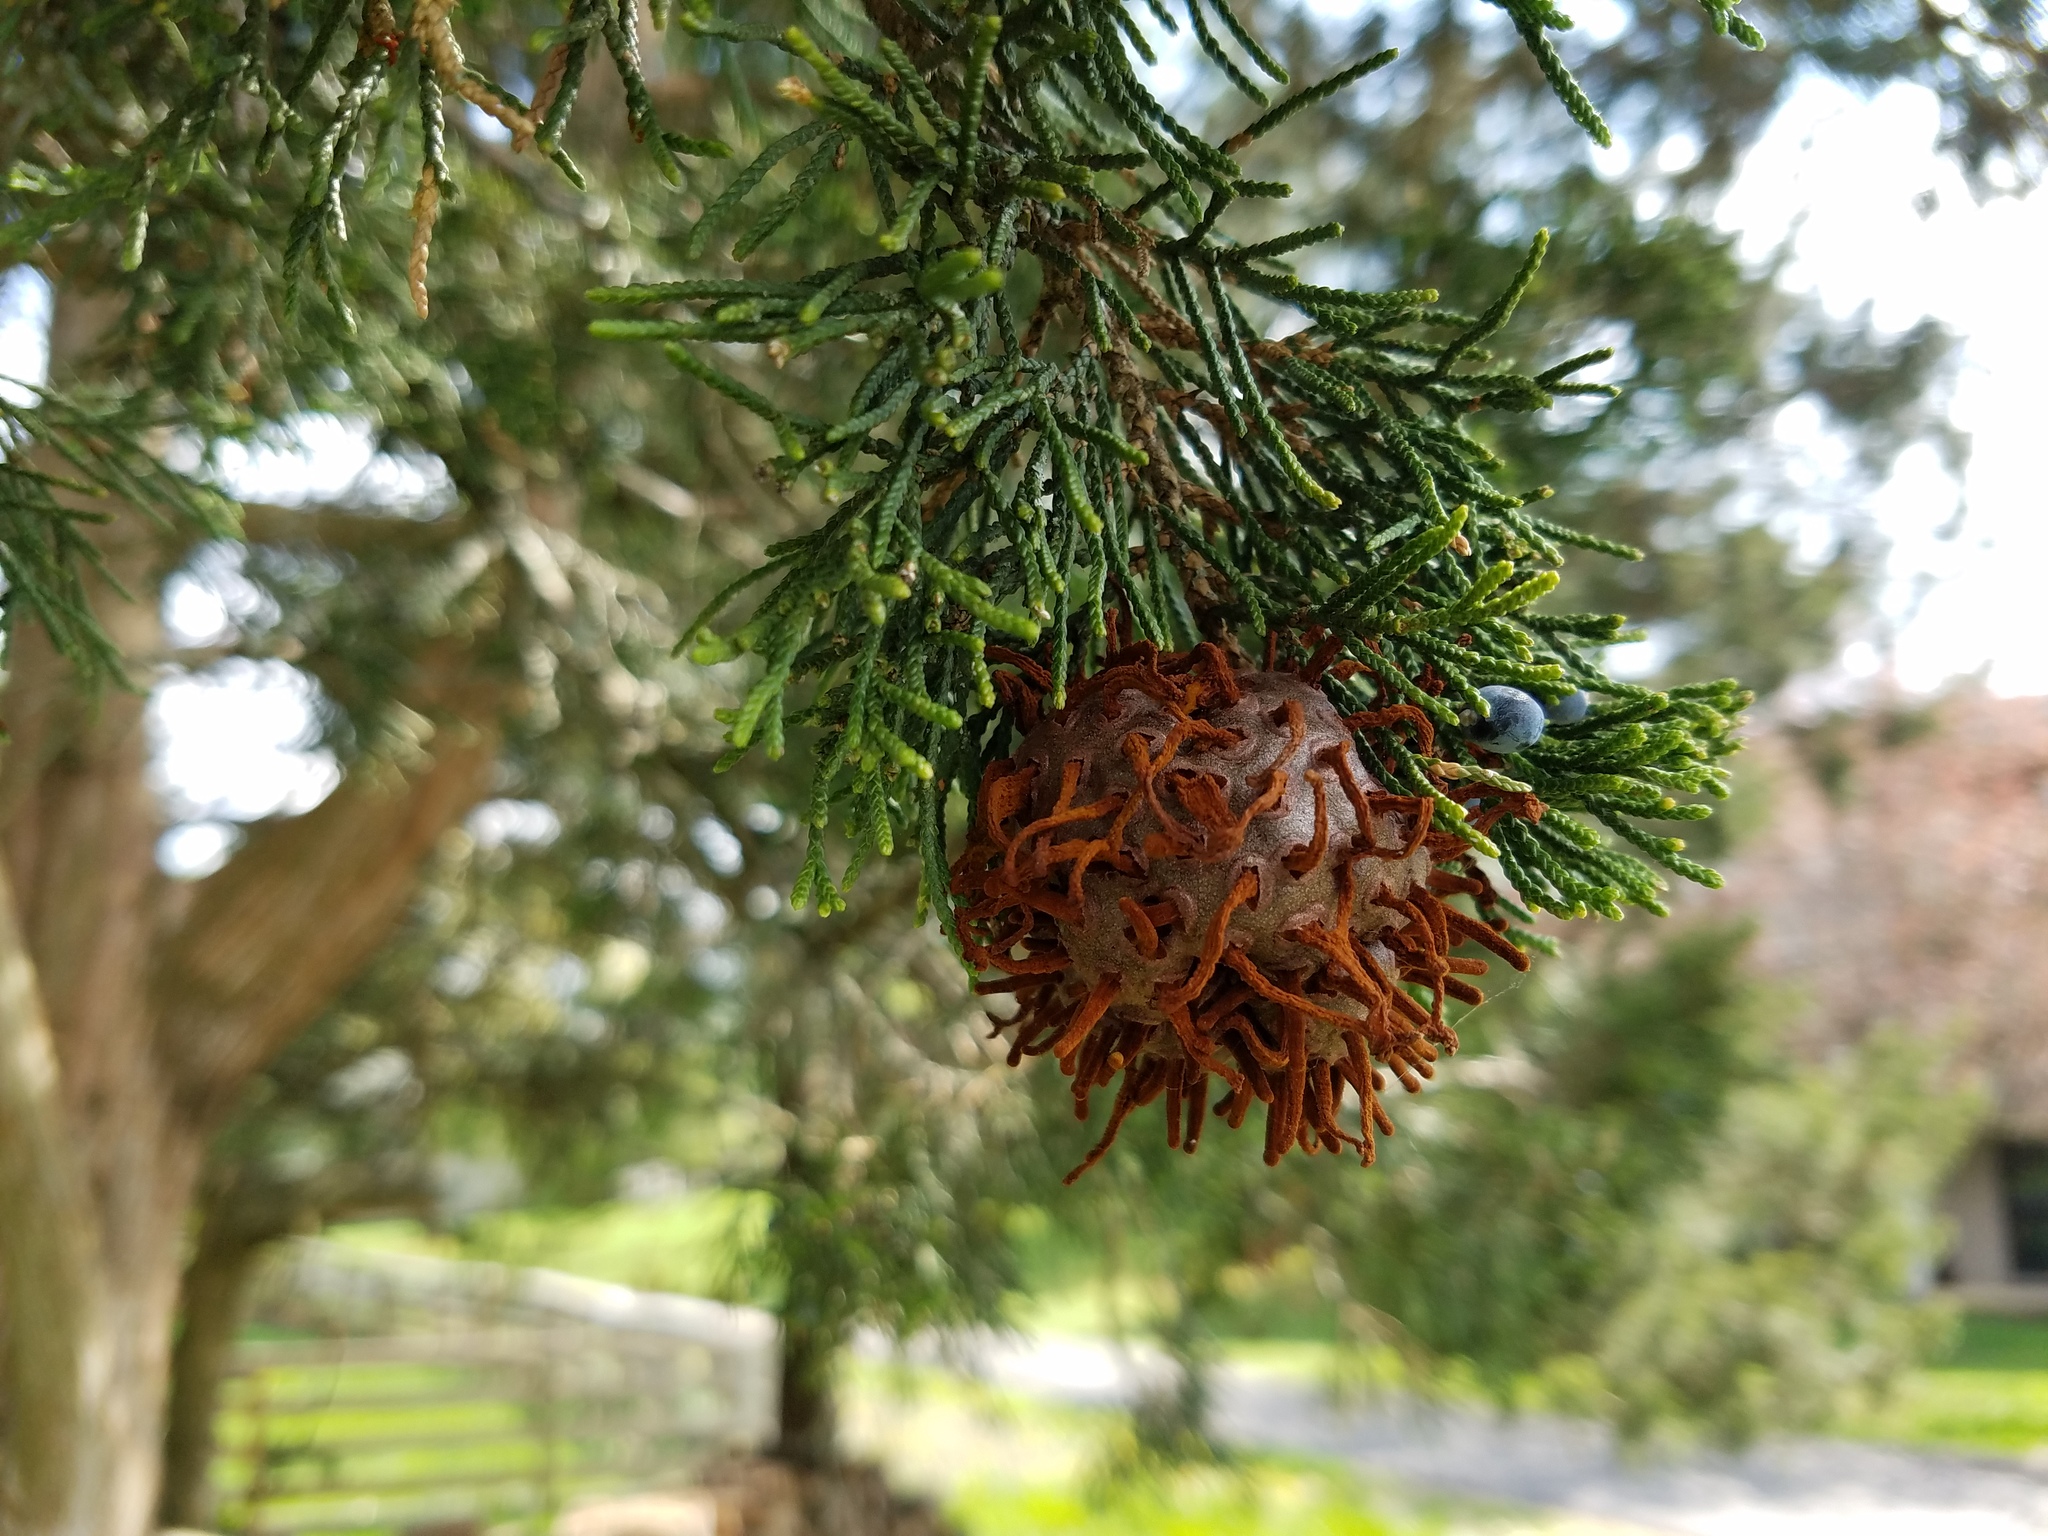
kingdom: Fungi
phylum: Basidiomycota
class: Pucciniomycetes
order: Pucciniales
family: Gymnosporangiaceae
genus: Gymnosporangium
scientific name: Gymnosporangium juniperi-virginianae
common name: Juniper-apple rust
